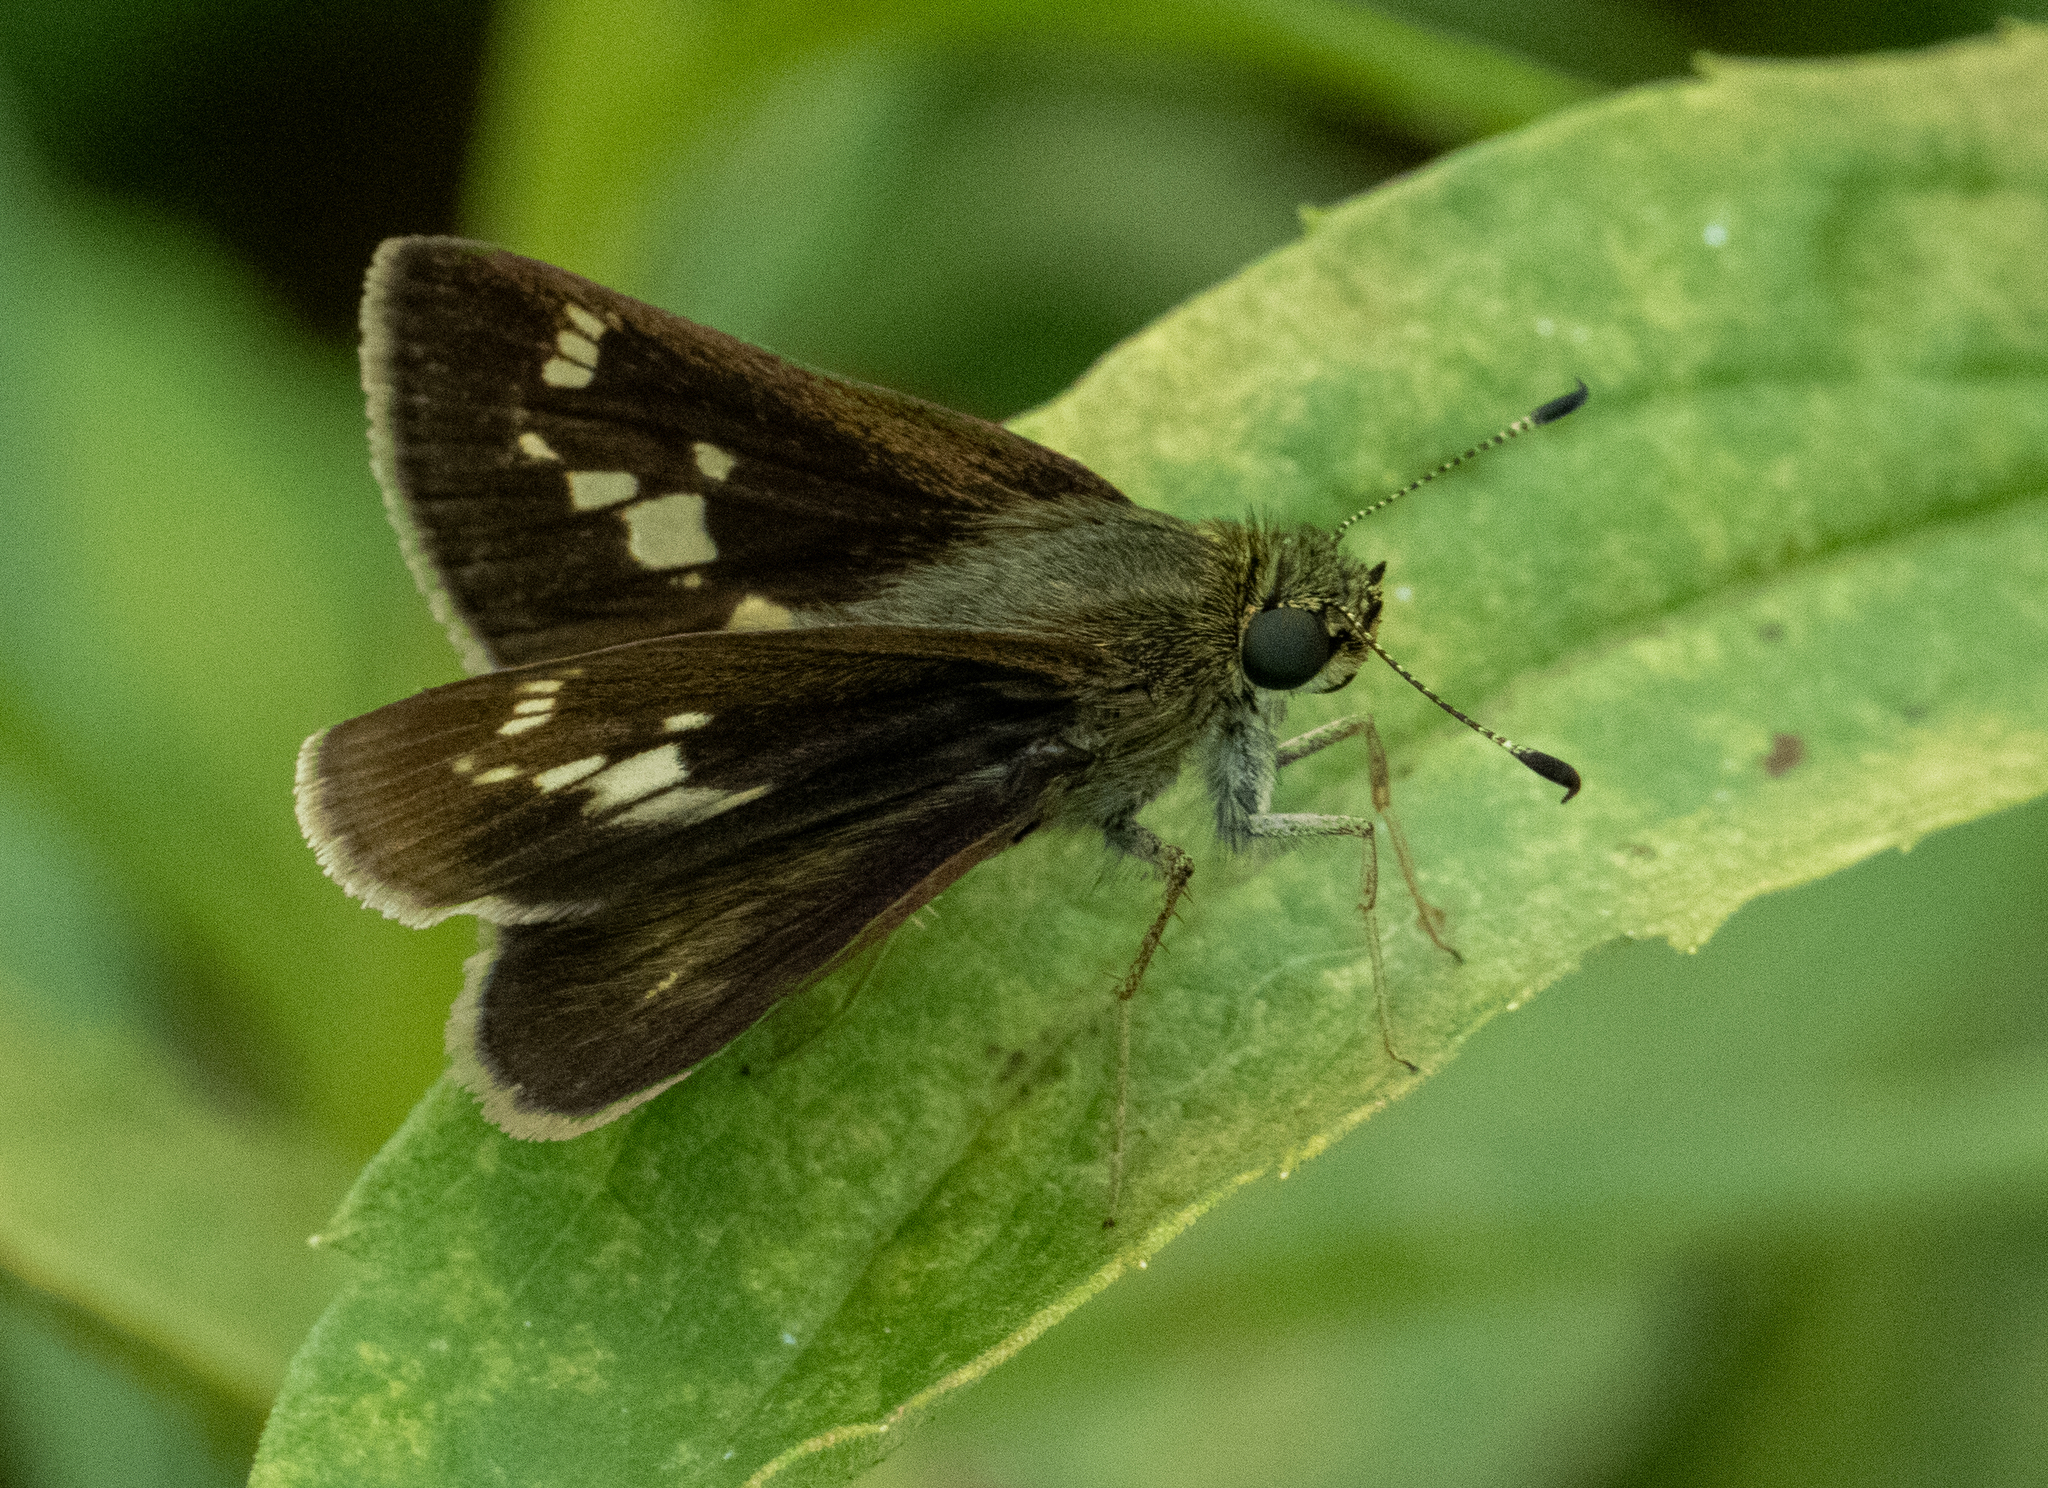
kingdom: Animalia
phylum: Arthropoda
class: Insecta
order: Lepidoptera
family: Hesperiidae
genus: Vernia
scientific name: Vernia verna
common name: Little glassywing
